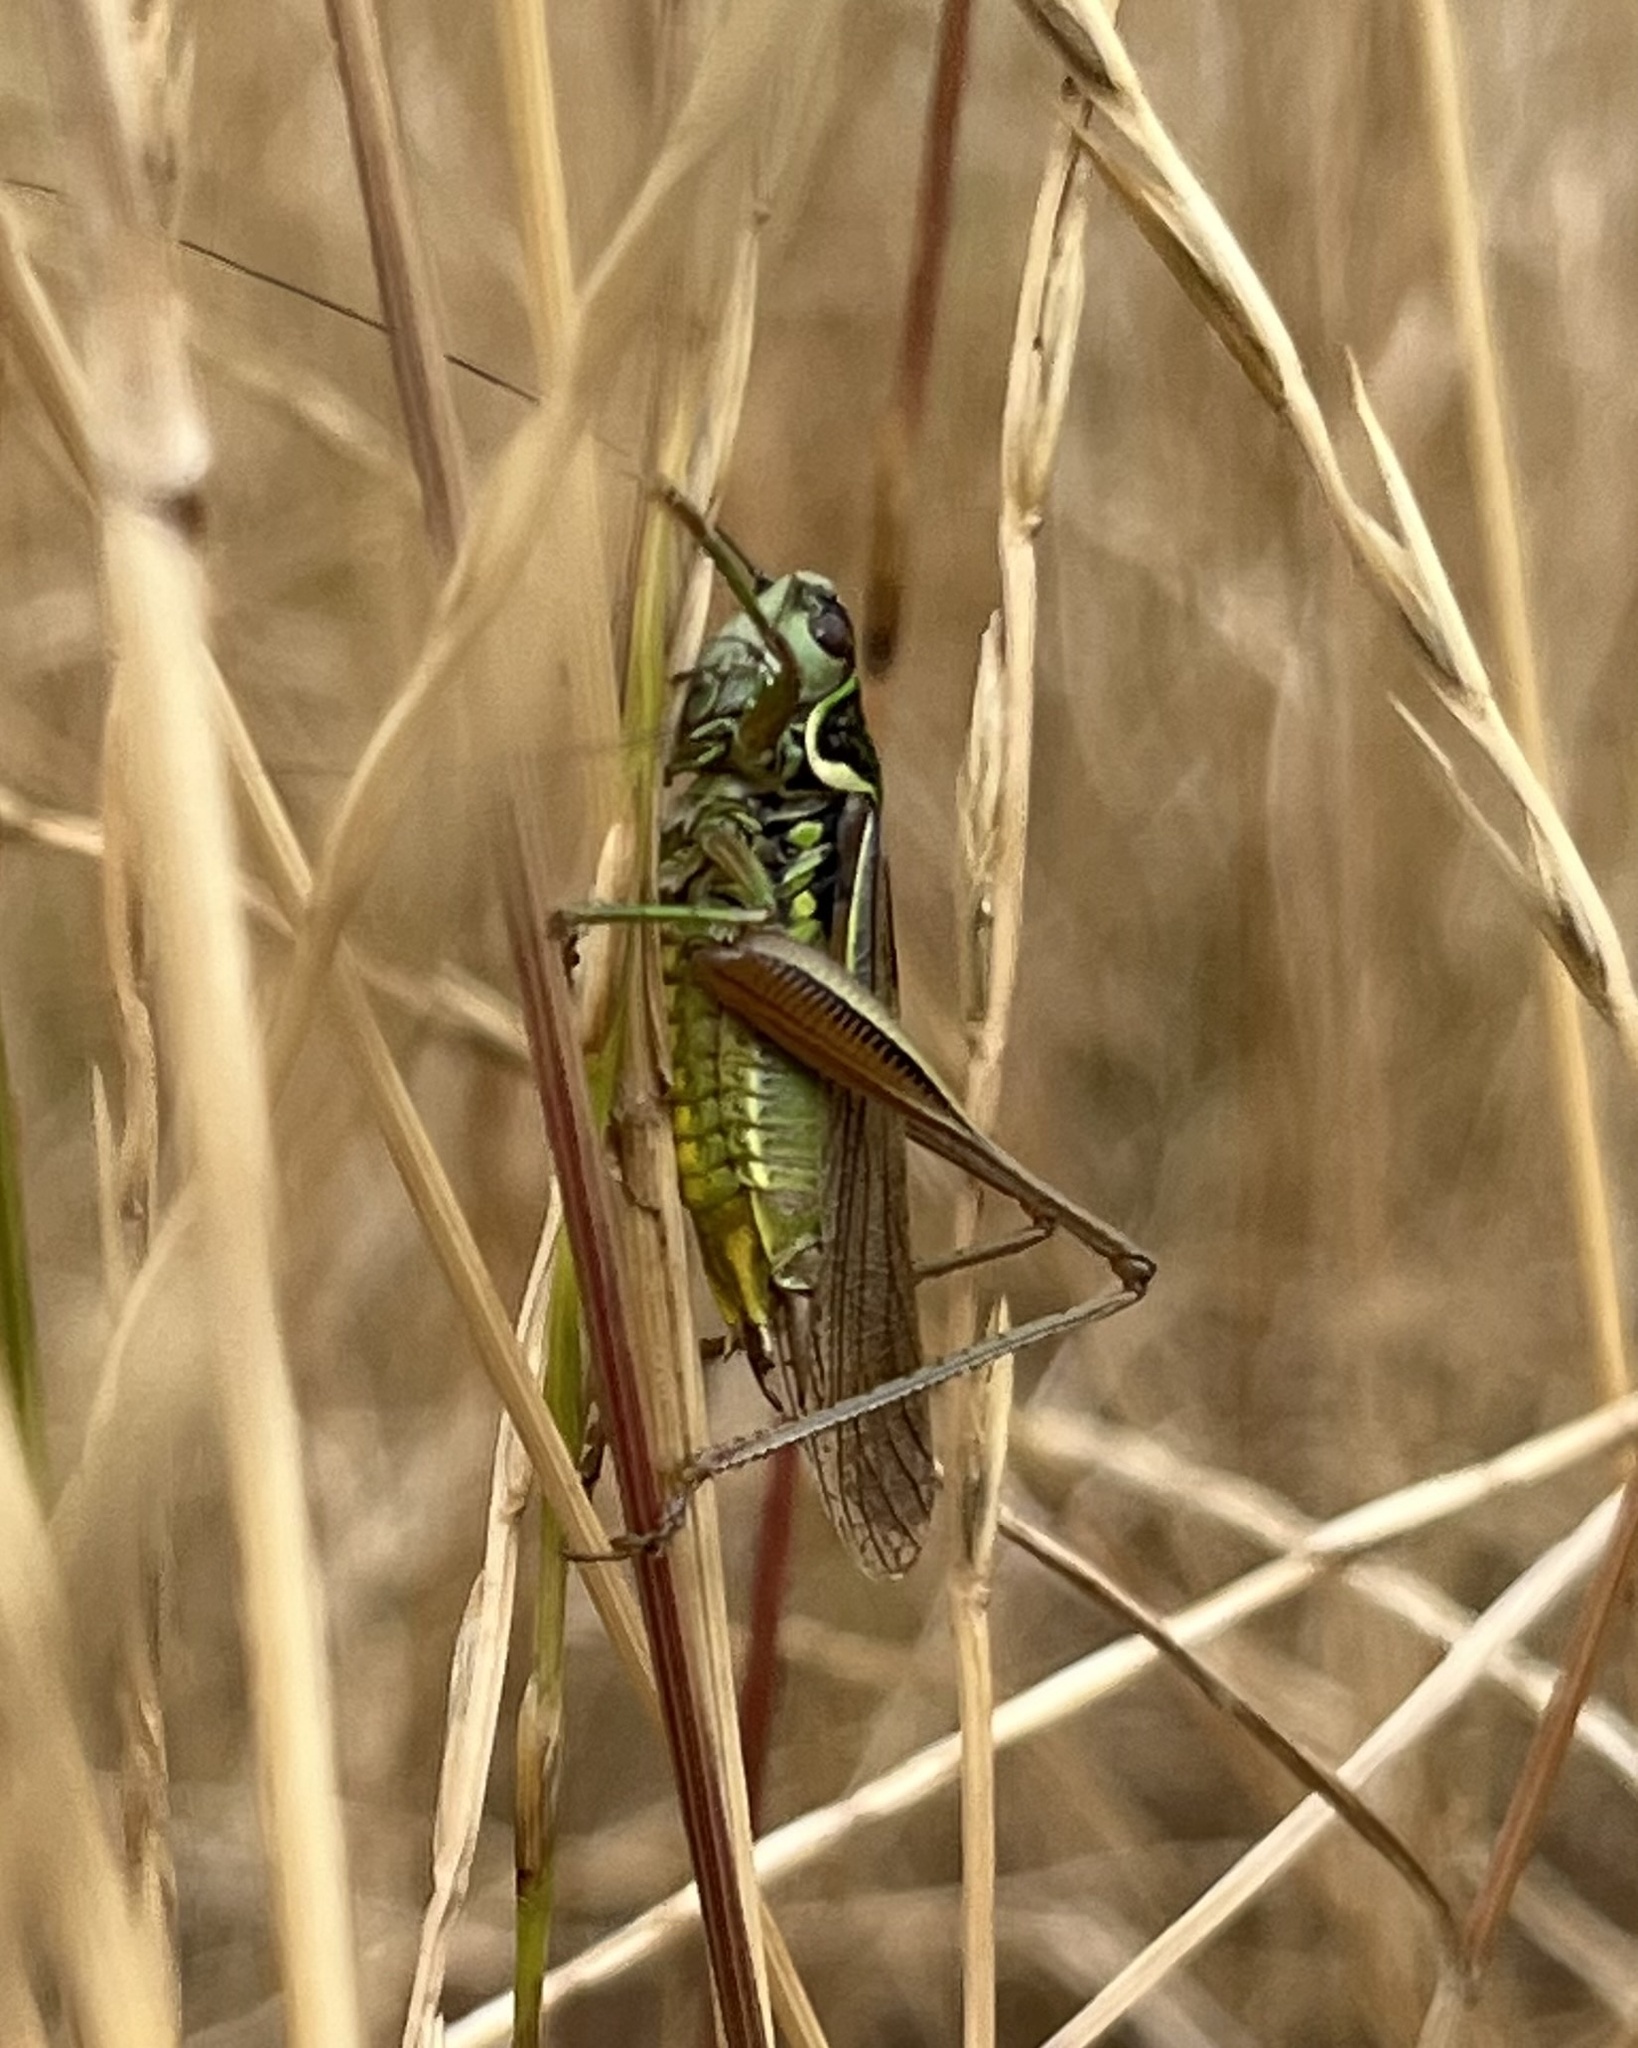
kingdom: Animalia
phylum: Arthropoda
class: Insecta
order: Orthoptera
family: Tettigoniidae
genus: Roeseliana
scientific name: Roeseliana roeselii
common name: Roesel's bush cricket
